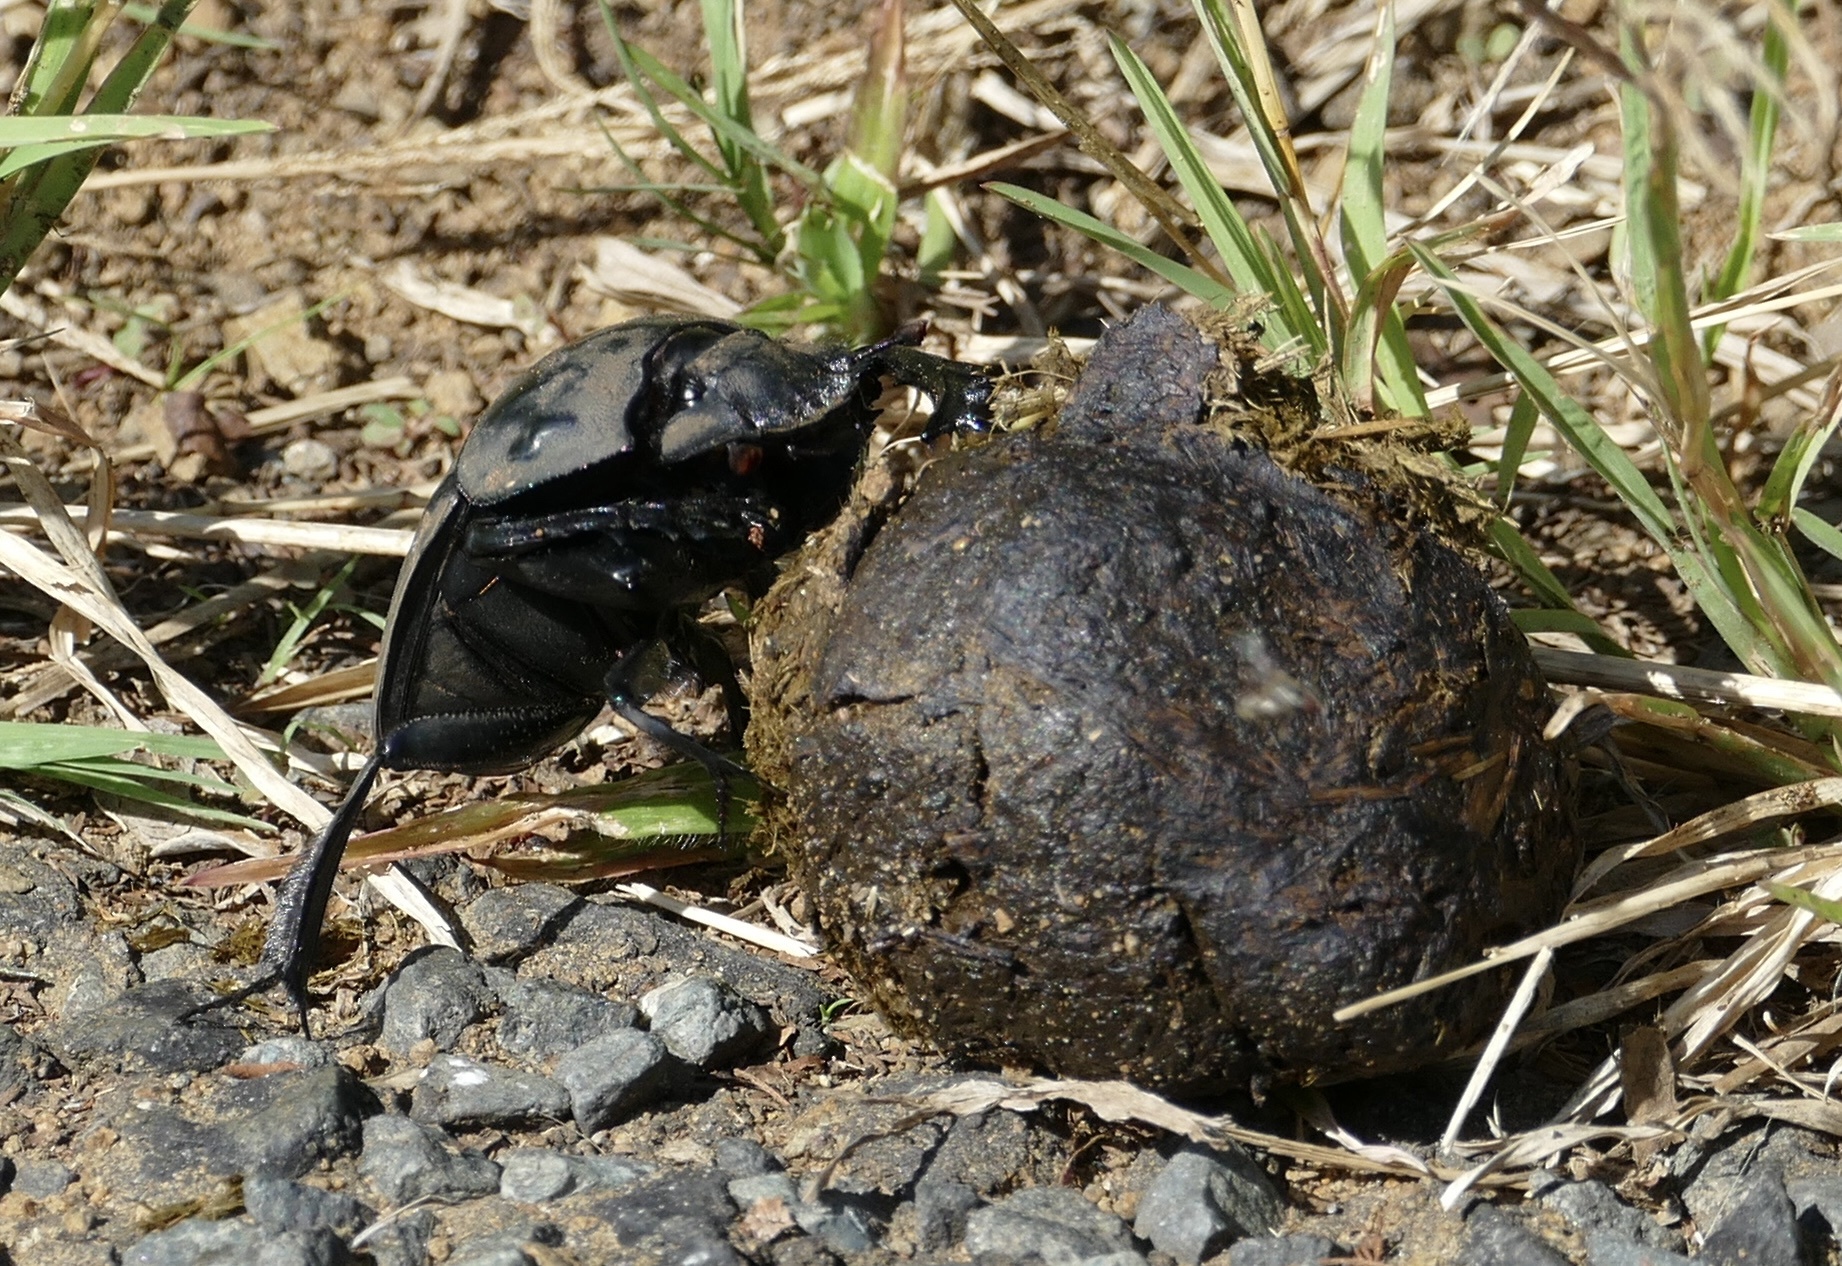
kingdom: Animalia
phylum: Arthropoda
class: Insecta
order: Coleoptera
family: Scarabaeidae
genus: Pachylomera
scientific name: Pachylomera femoralis
